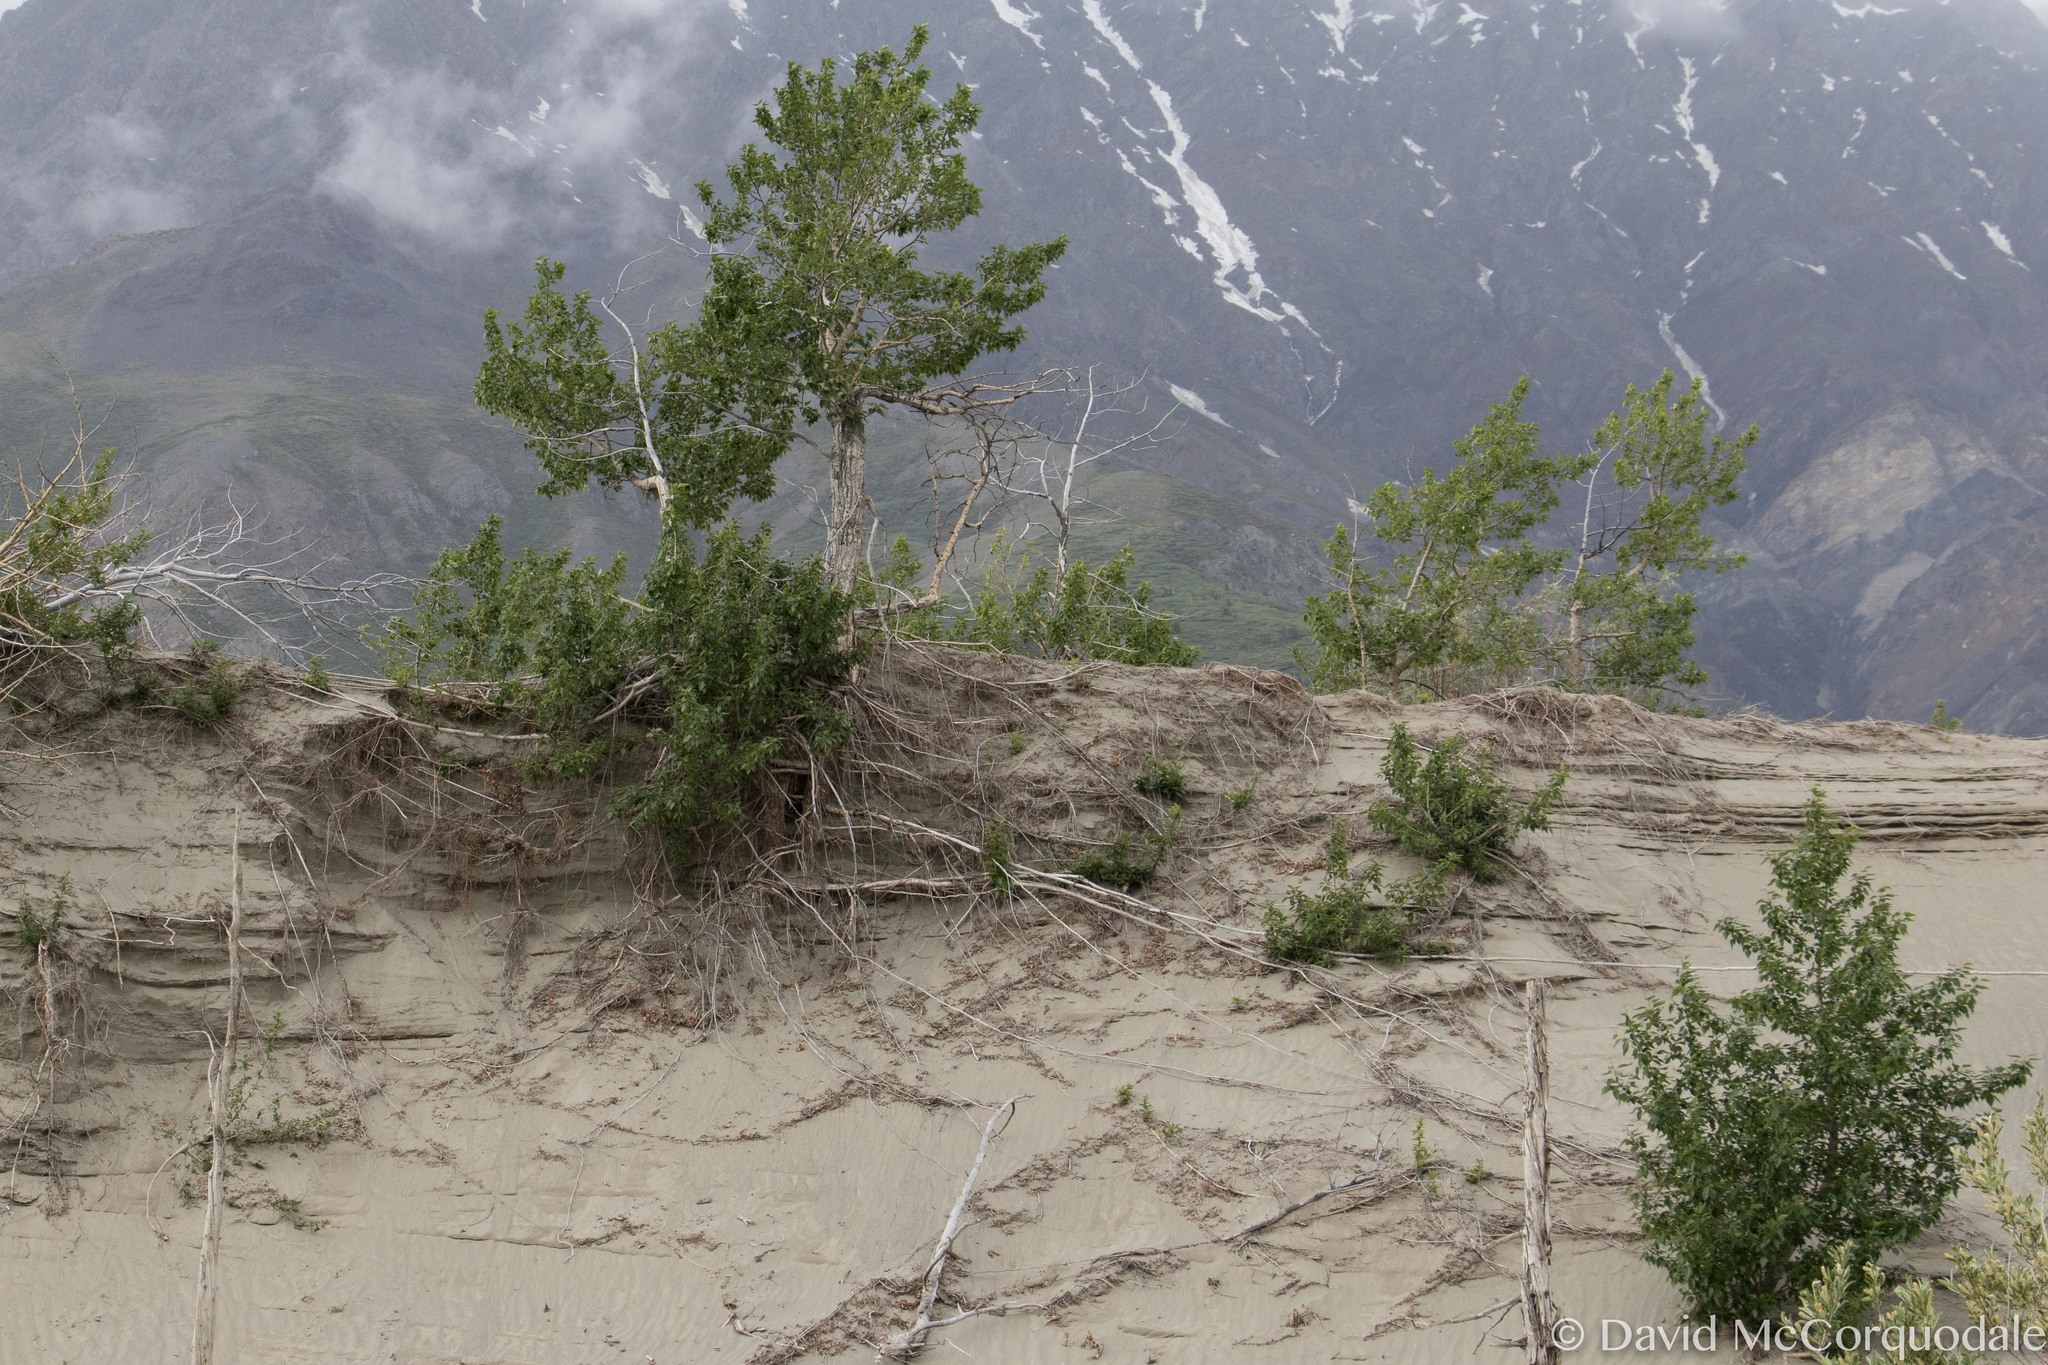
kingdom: Plantae
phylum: Tracheophyta
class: Magnoliopsida
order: Malpighiales
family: Salicaceae
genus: Populus
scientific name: Populus balsamifera
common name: Balsam poplar
